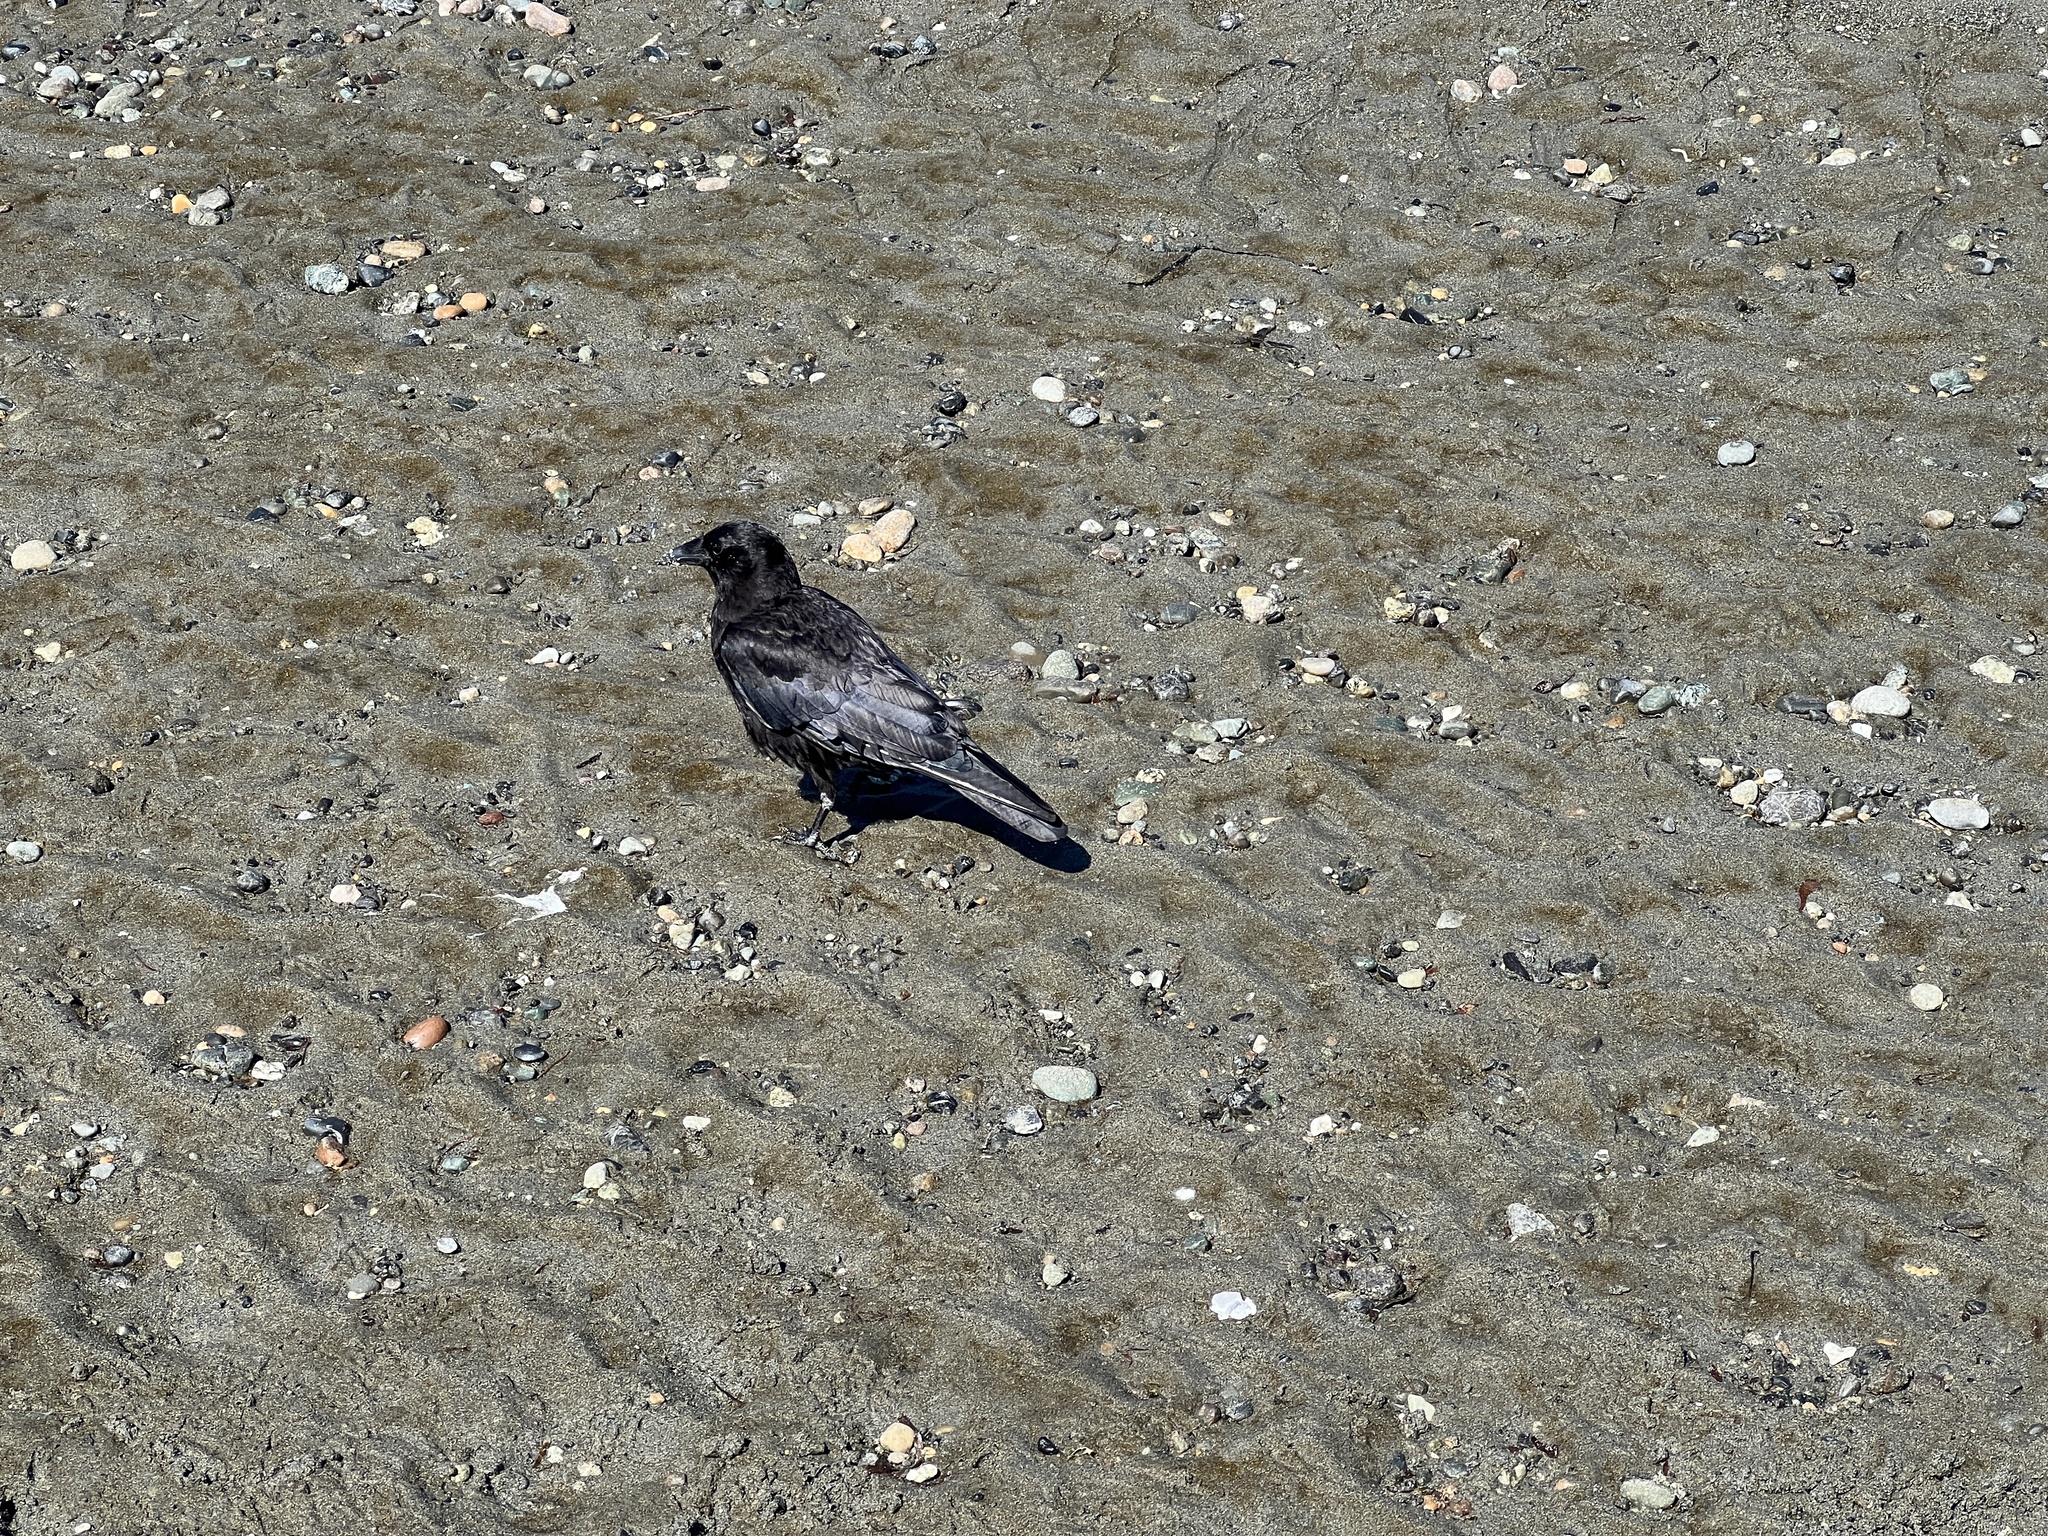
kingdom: Animalia
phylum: Chordata
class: Aves
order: Passeriformes
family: Corvidae
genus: Corvus
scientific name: Corvus brachyrhynchos
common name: American crow
